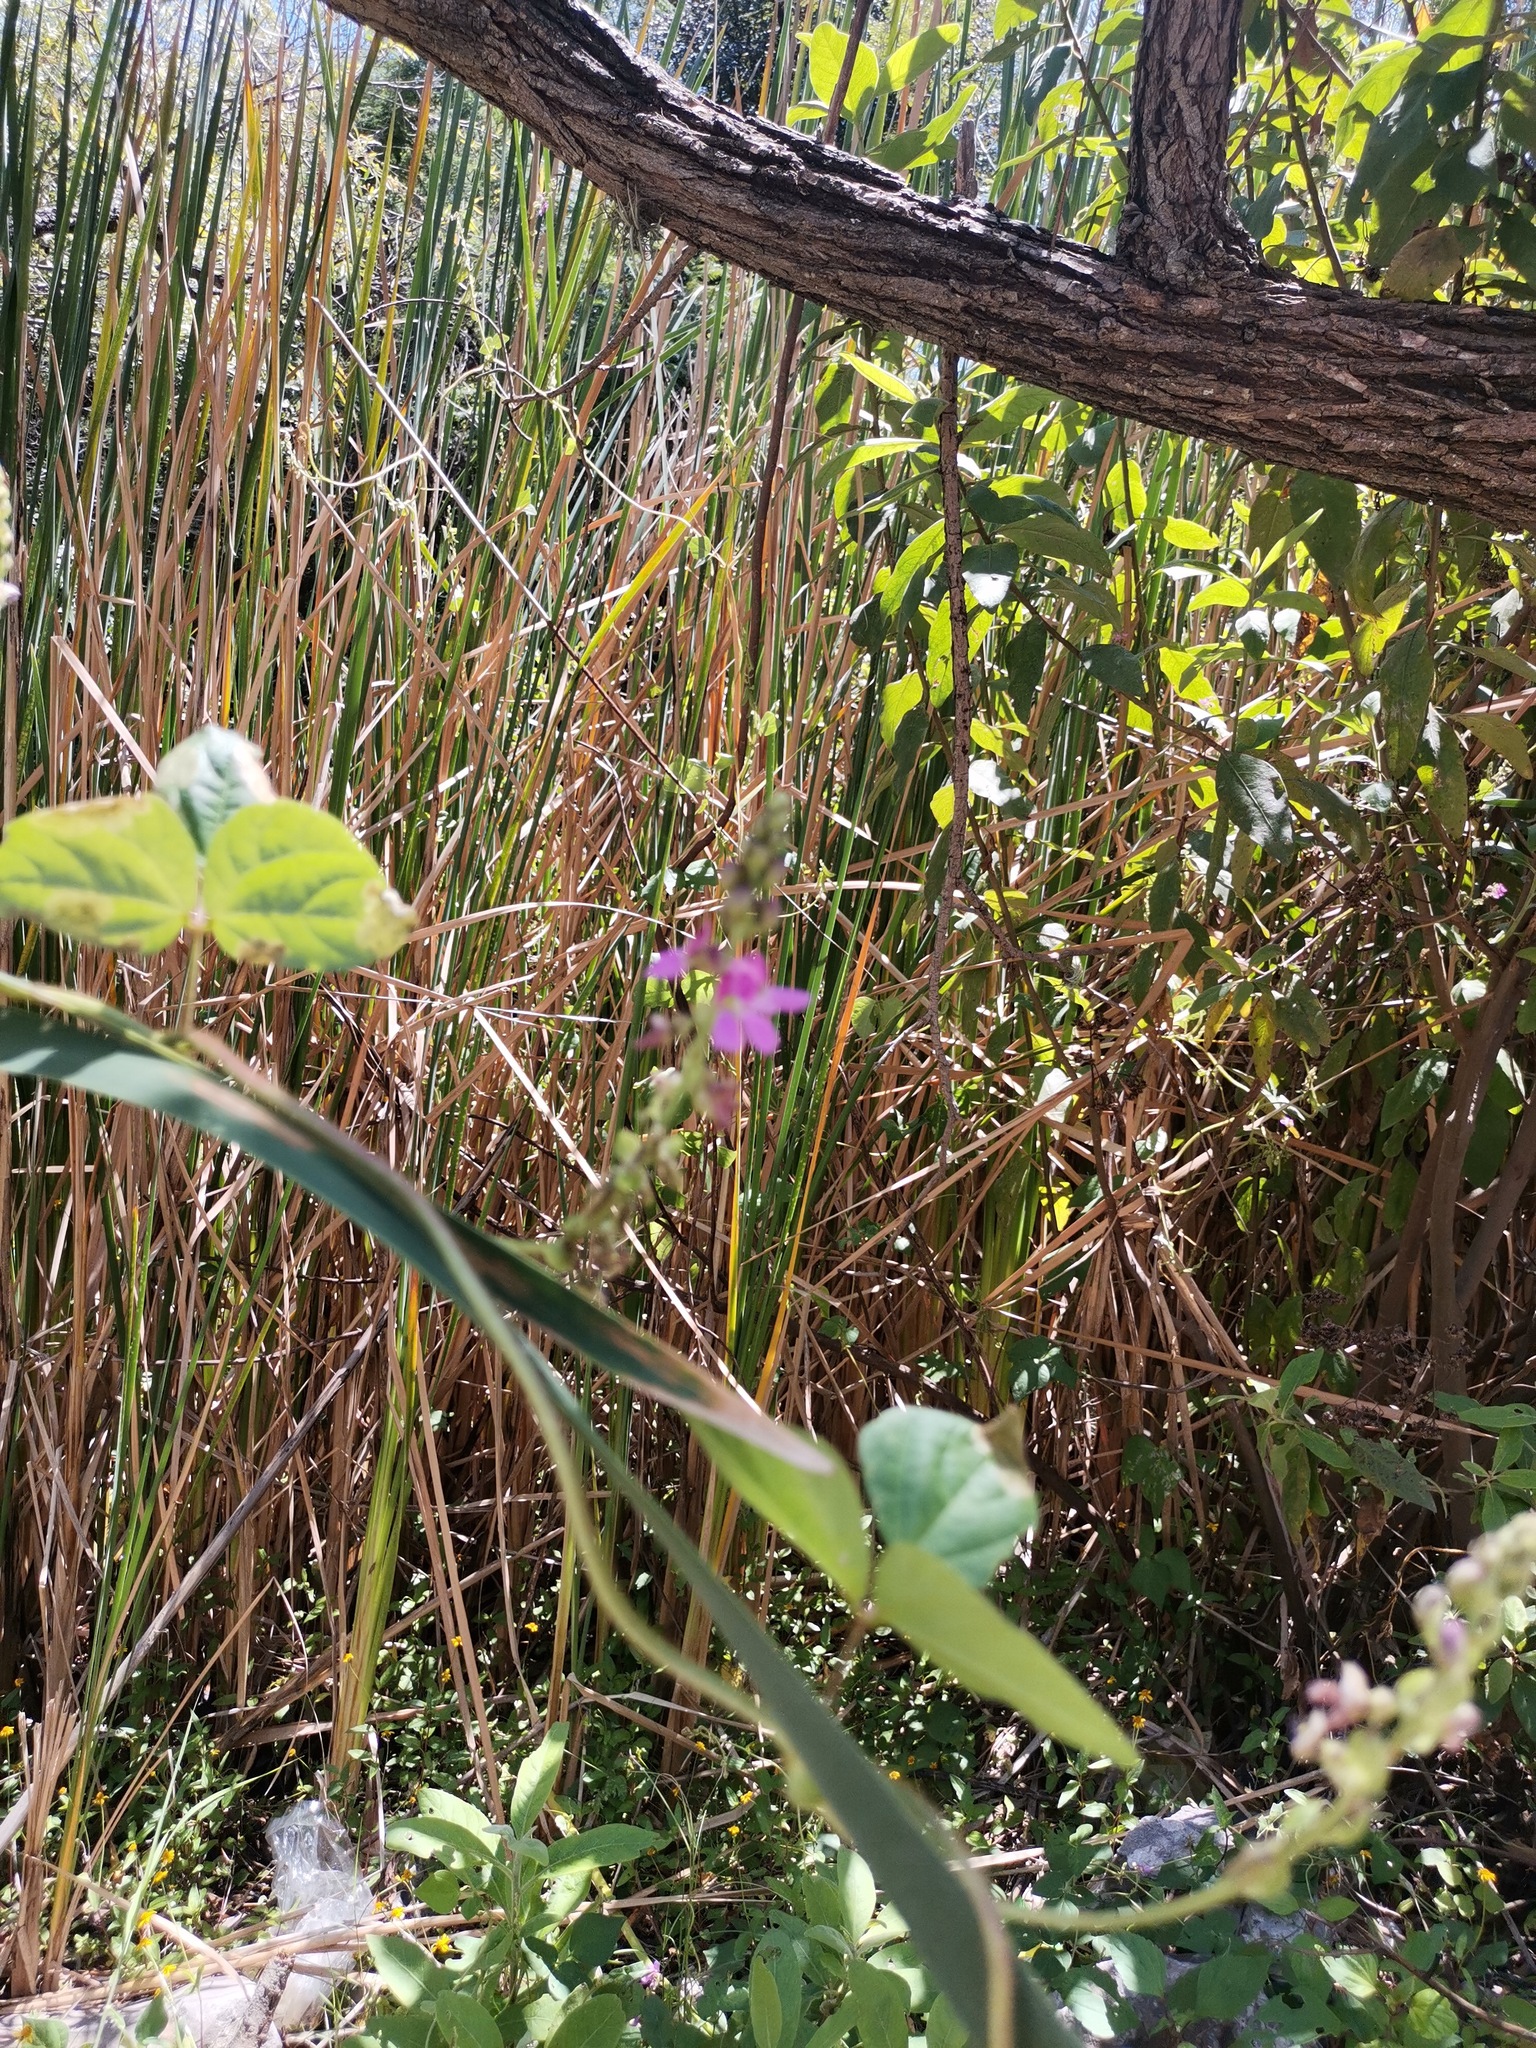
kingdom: Plantae
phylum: Tracheophyta
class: Magnoliopsida
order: Fabales
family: Fabaceae
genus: Phaseolus
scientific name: Phaseolus vulgaris
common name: Bean
